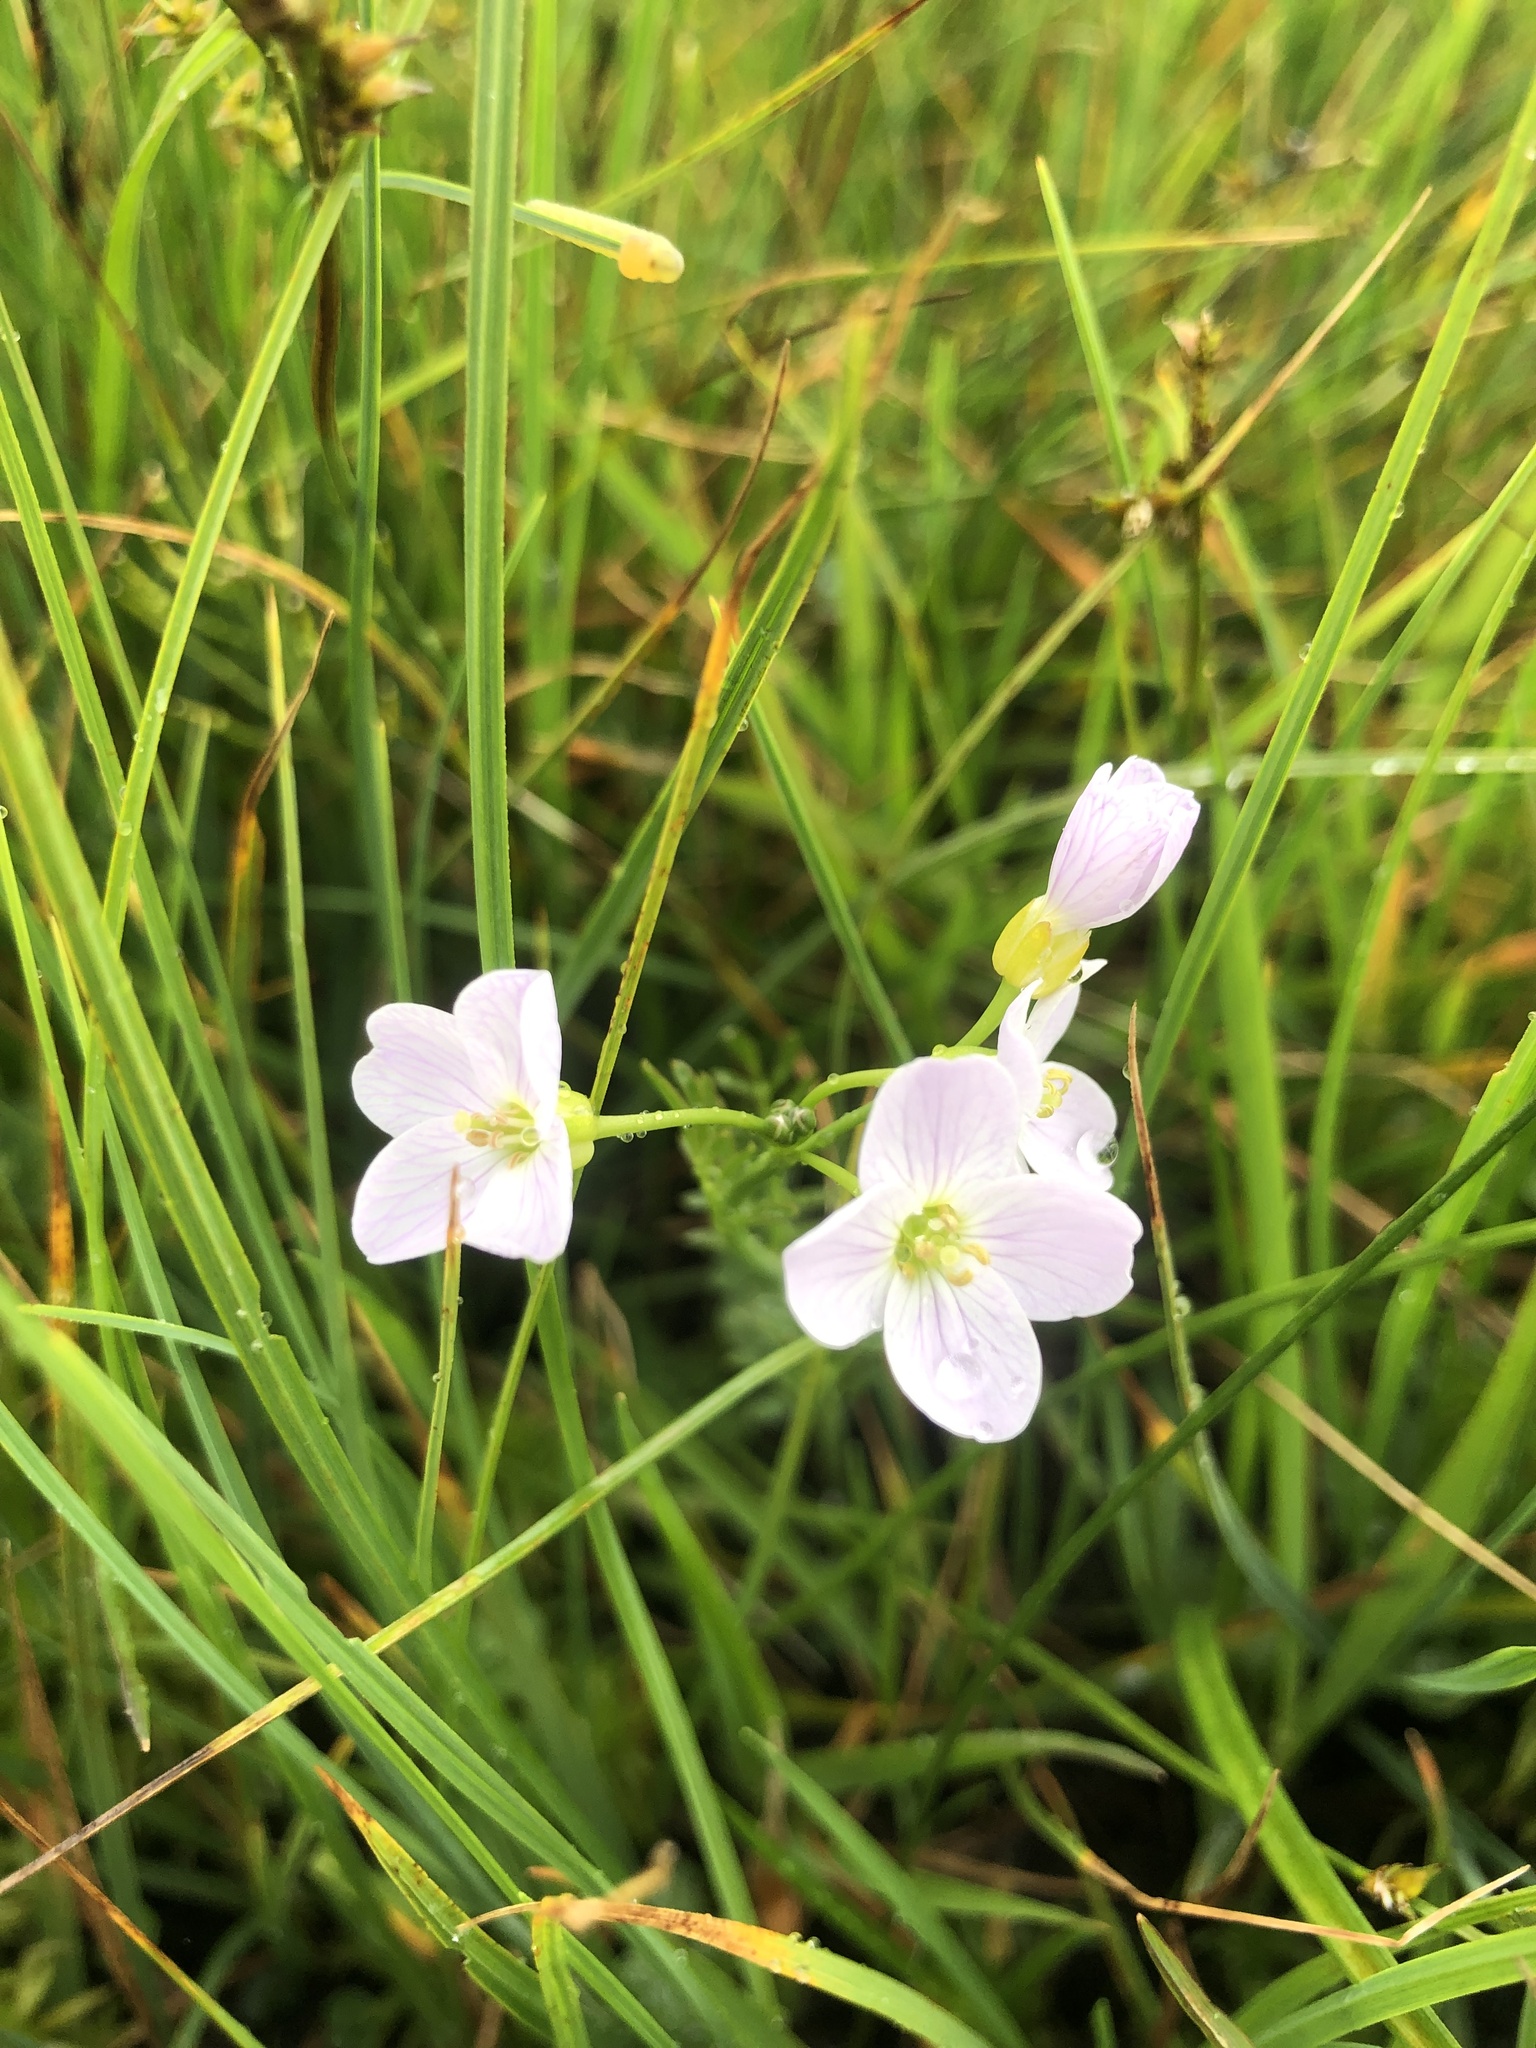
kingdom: Plantae
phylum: Tracheophyta
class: Magnoliopsida
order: Brassicales
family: Brassicaceae
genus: Cardamine
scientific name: Cardamine pratensis
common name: Cuckoo flower
